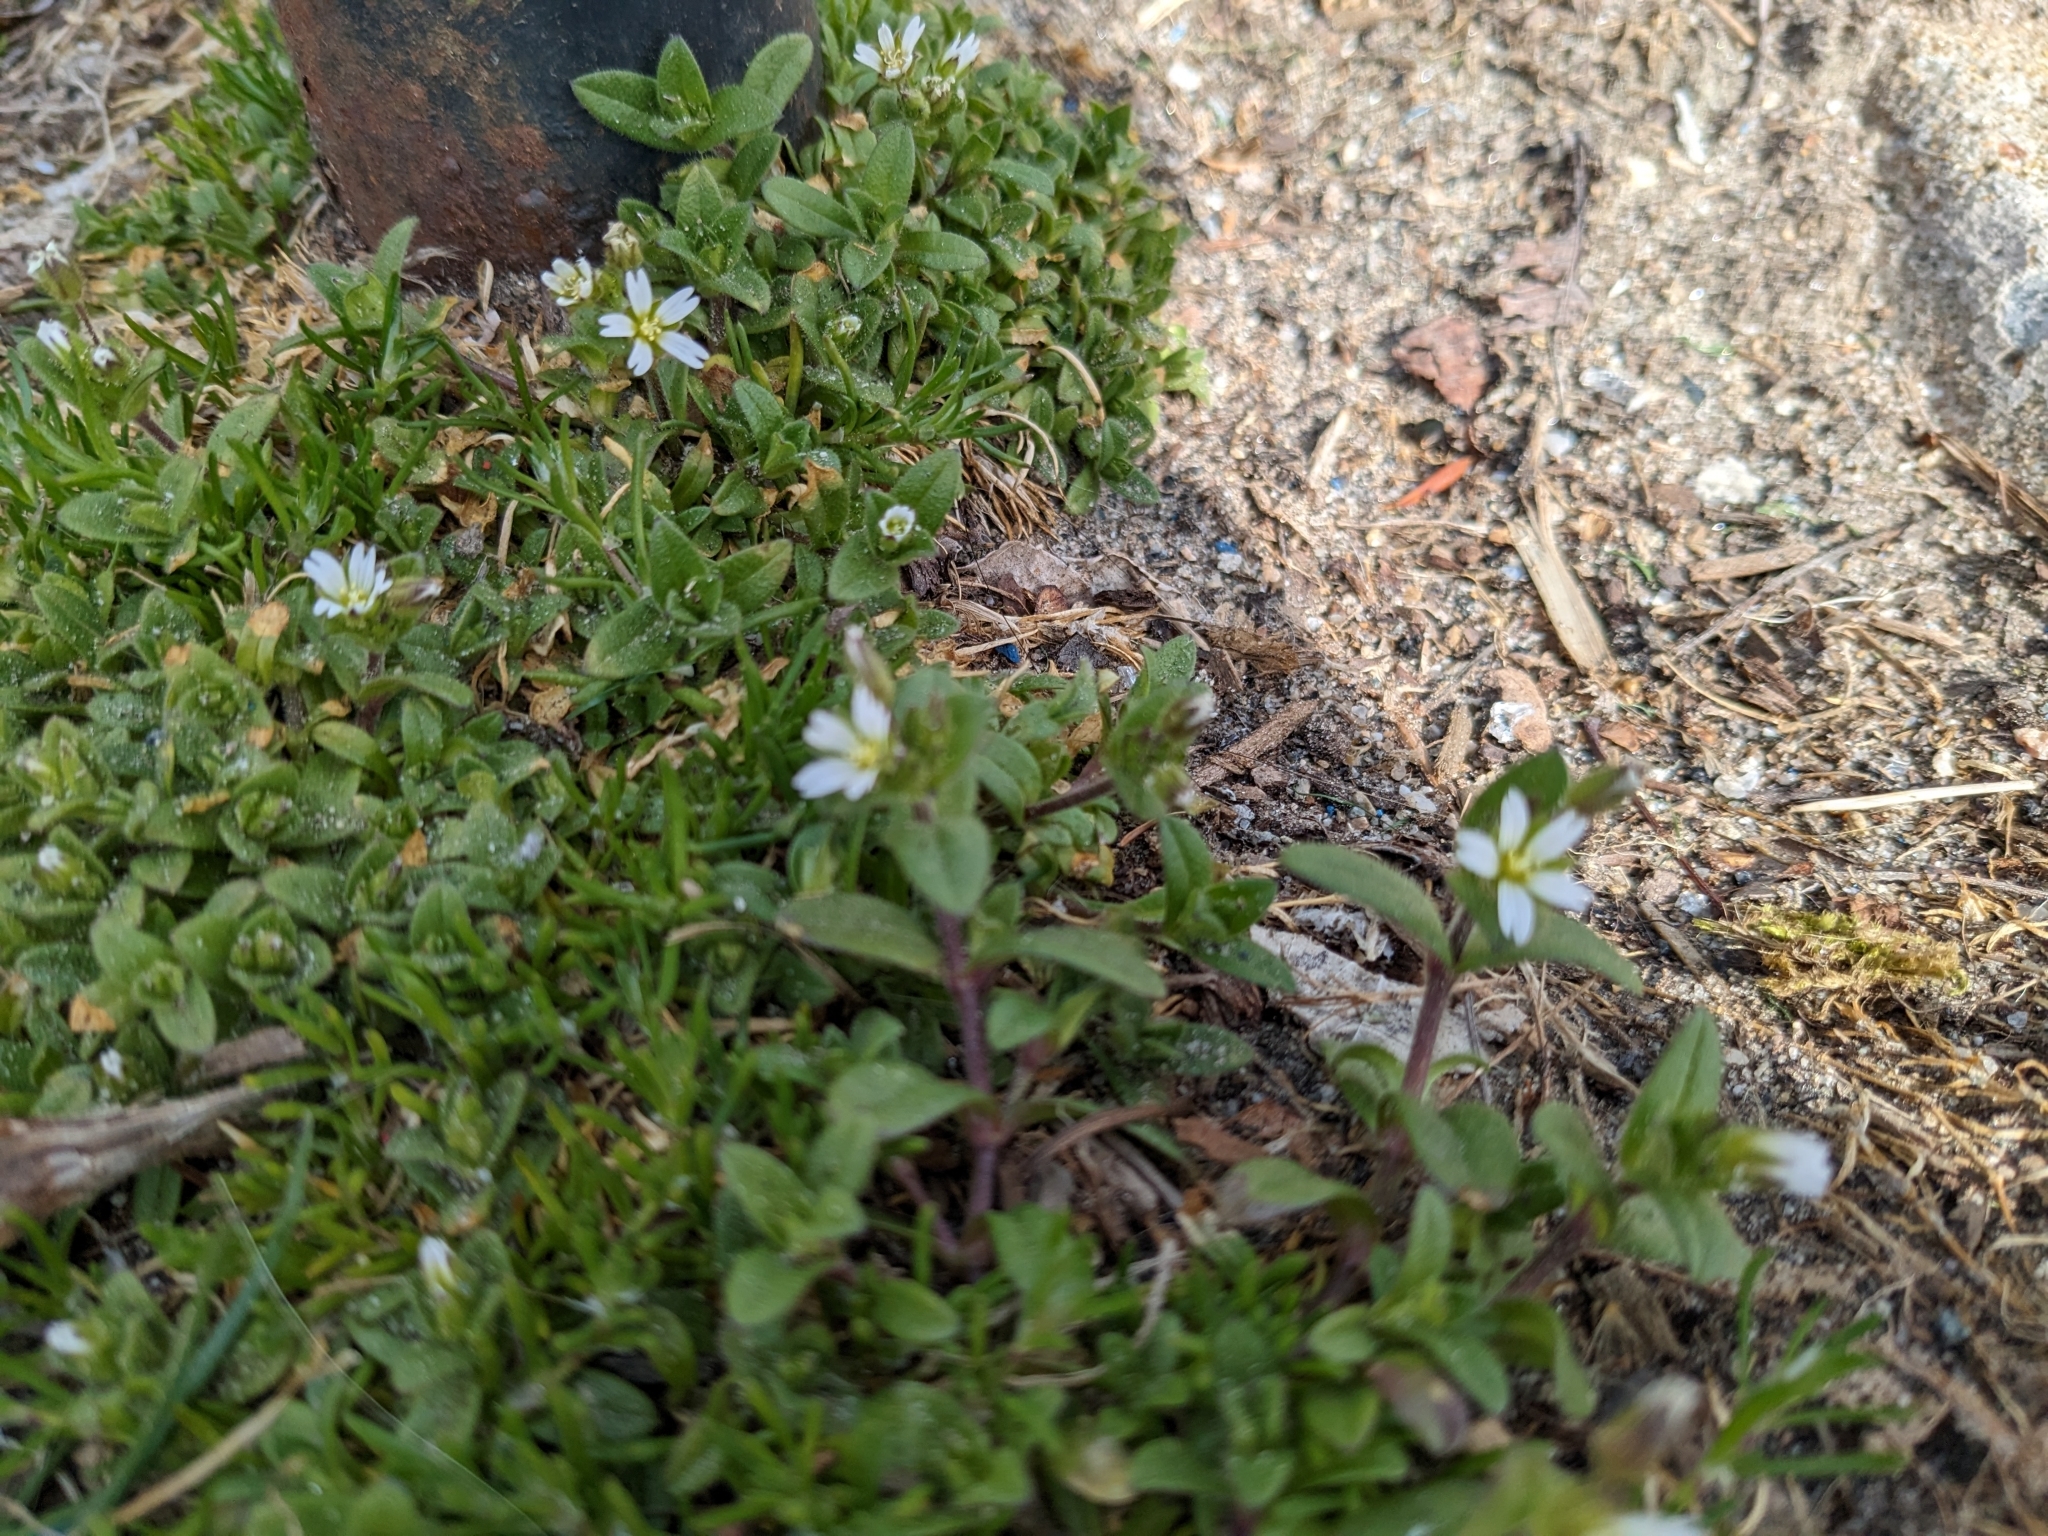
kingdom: Plantae
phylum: Tracheophyta
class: Magnoliopsida
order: Caryophyllales
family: Caryophyllaceae
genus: Cerastium
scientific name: Cerastium fontanum
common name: Common mouse-ear
